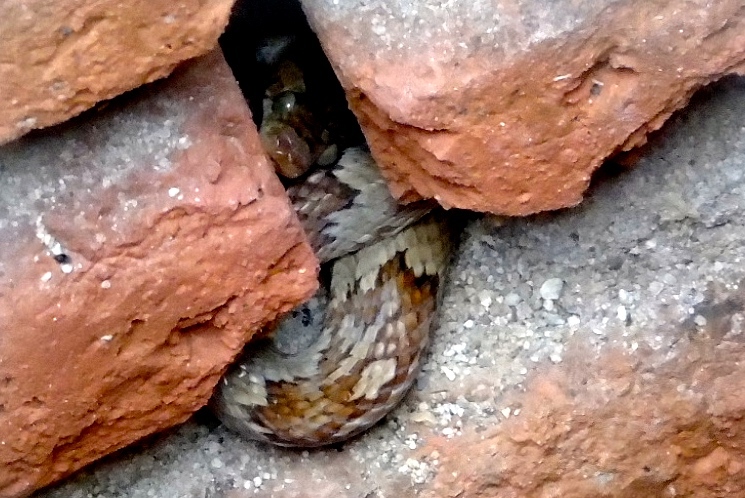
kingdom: Animalia
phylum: Chordata
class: Squamata
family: Colubridae
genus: Trimorphodon
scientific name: Trimorphodon paucimaculatus
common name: Sinaloan lyresnake
